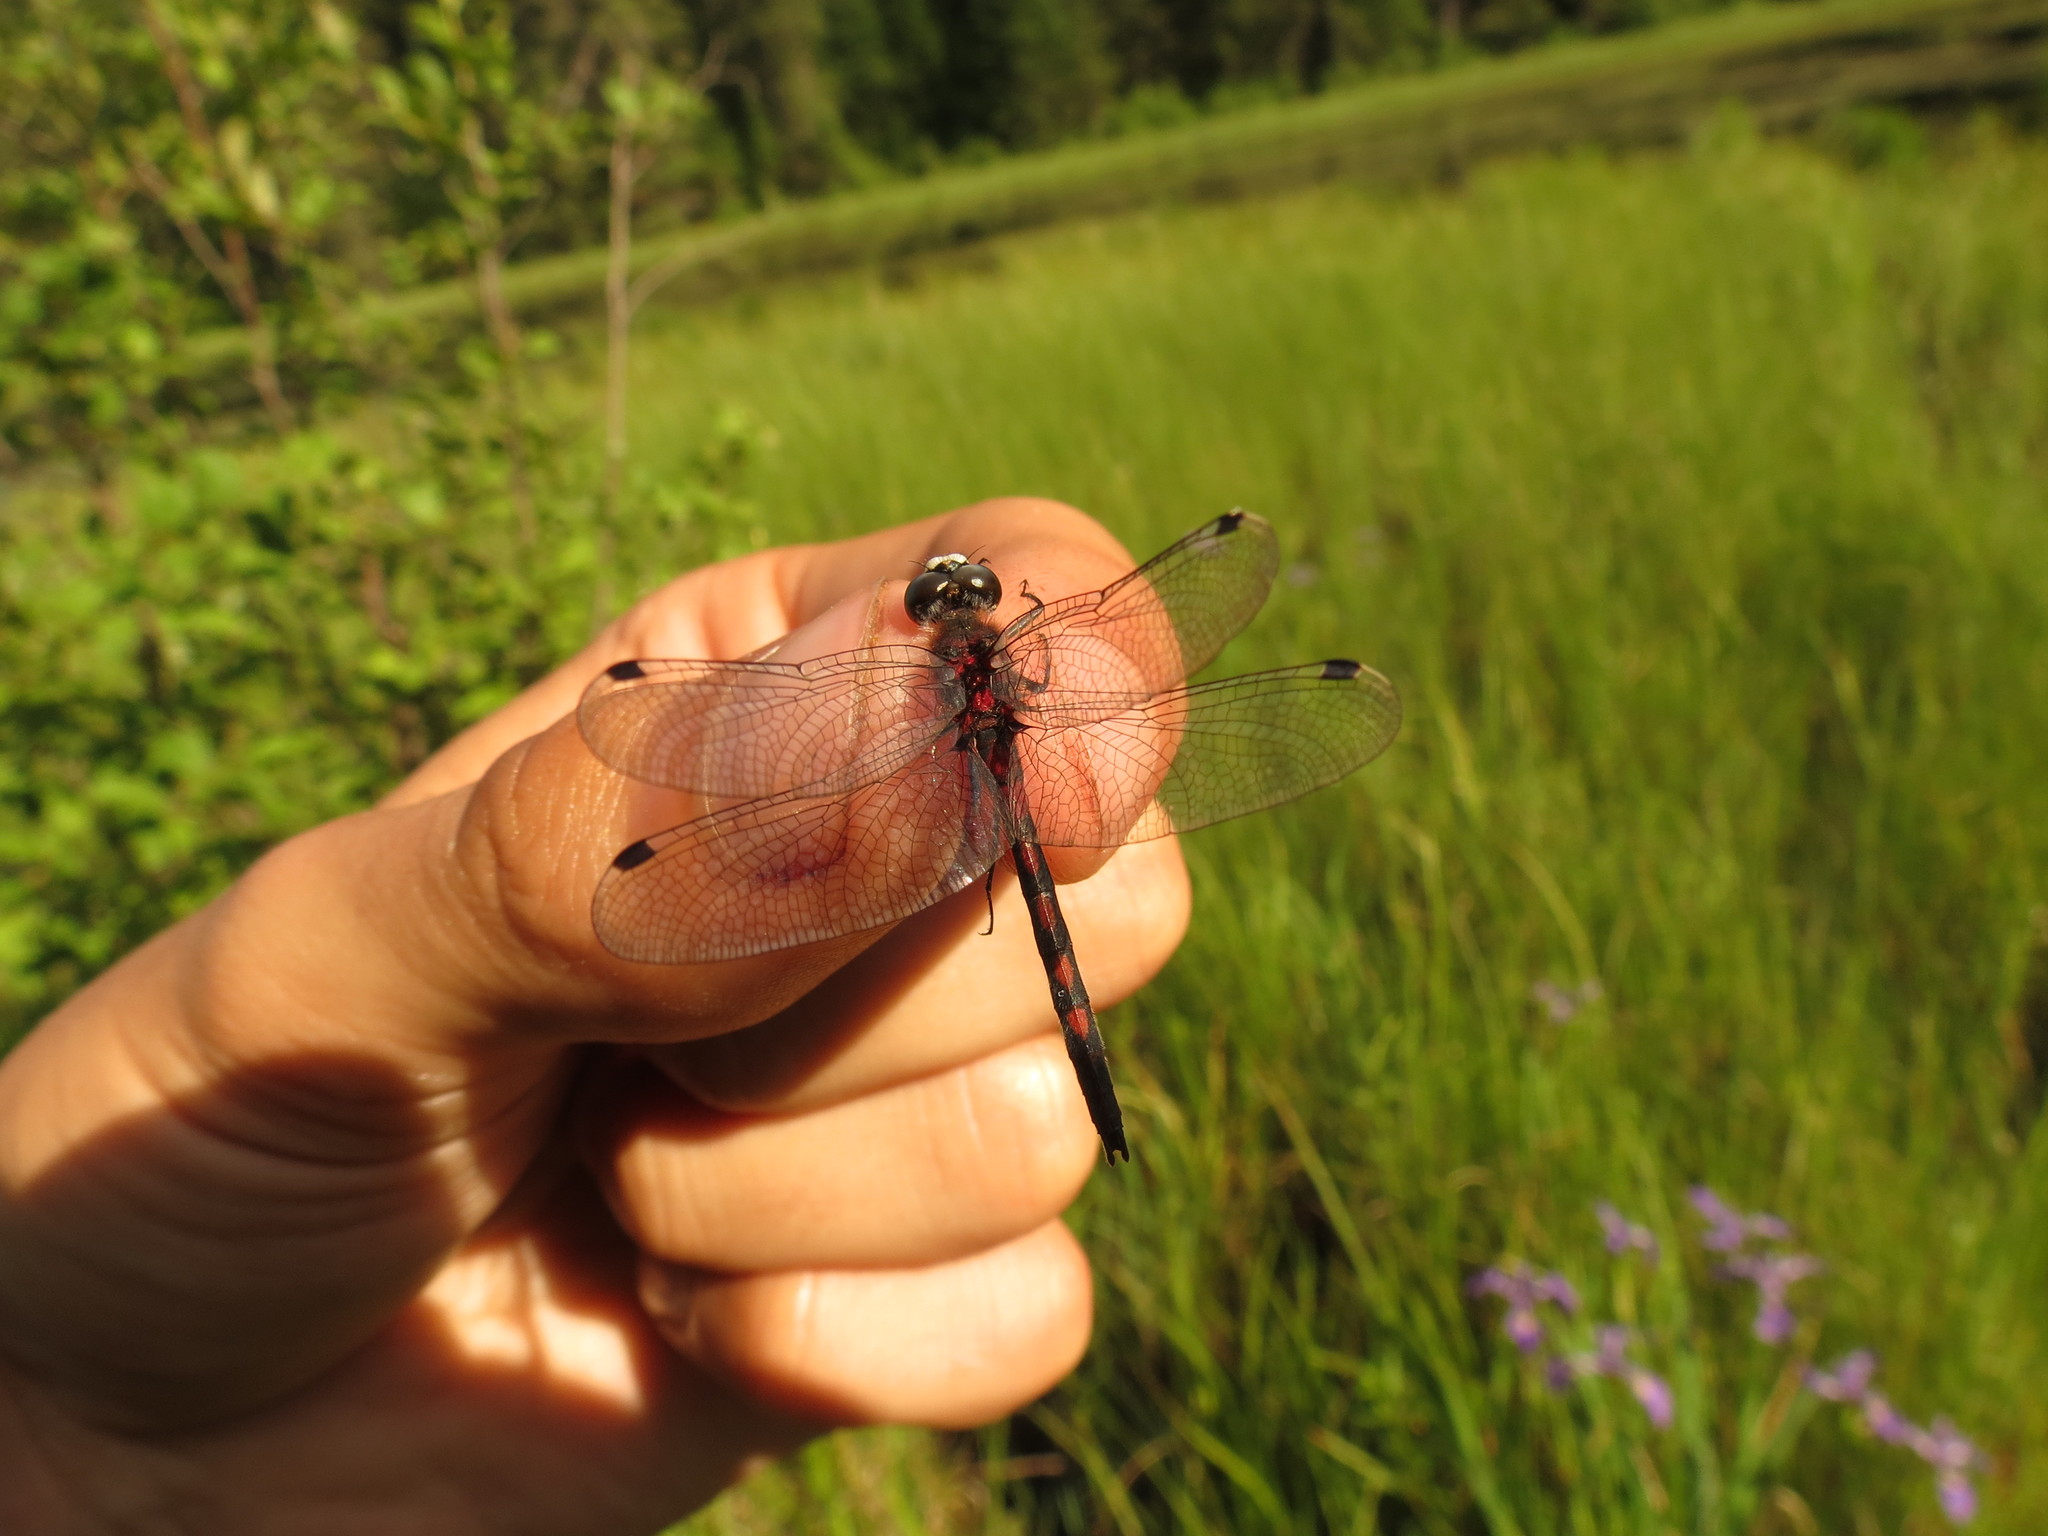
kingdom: Animalia
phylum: Arthropoda
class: Insecta
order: Odonata
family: Libellulidae
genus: Leucorrhinia
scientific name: Leucorrhinia hudsonica
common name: Hudsonian whiteface
